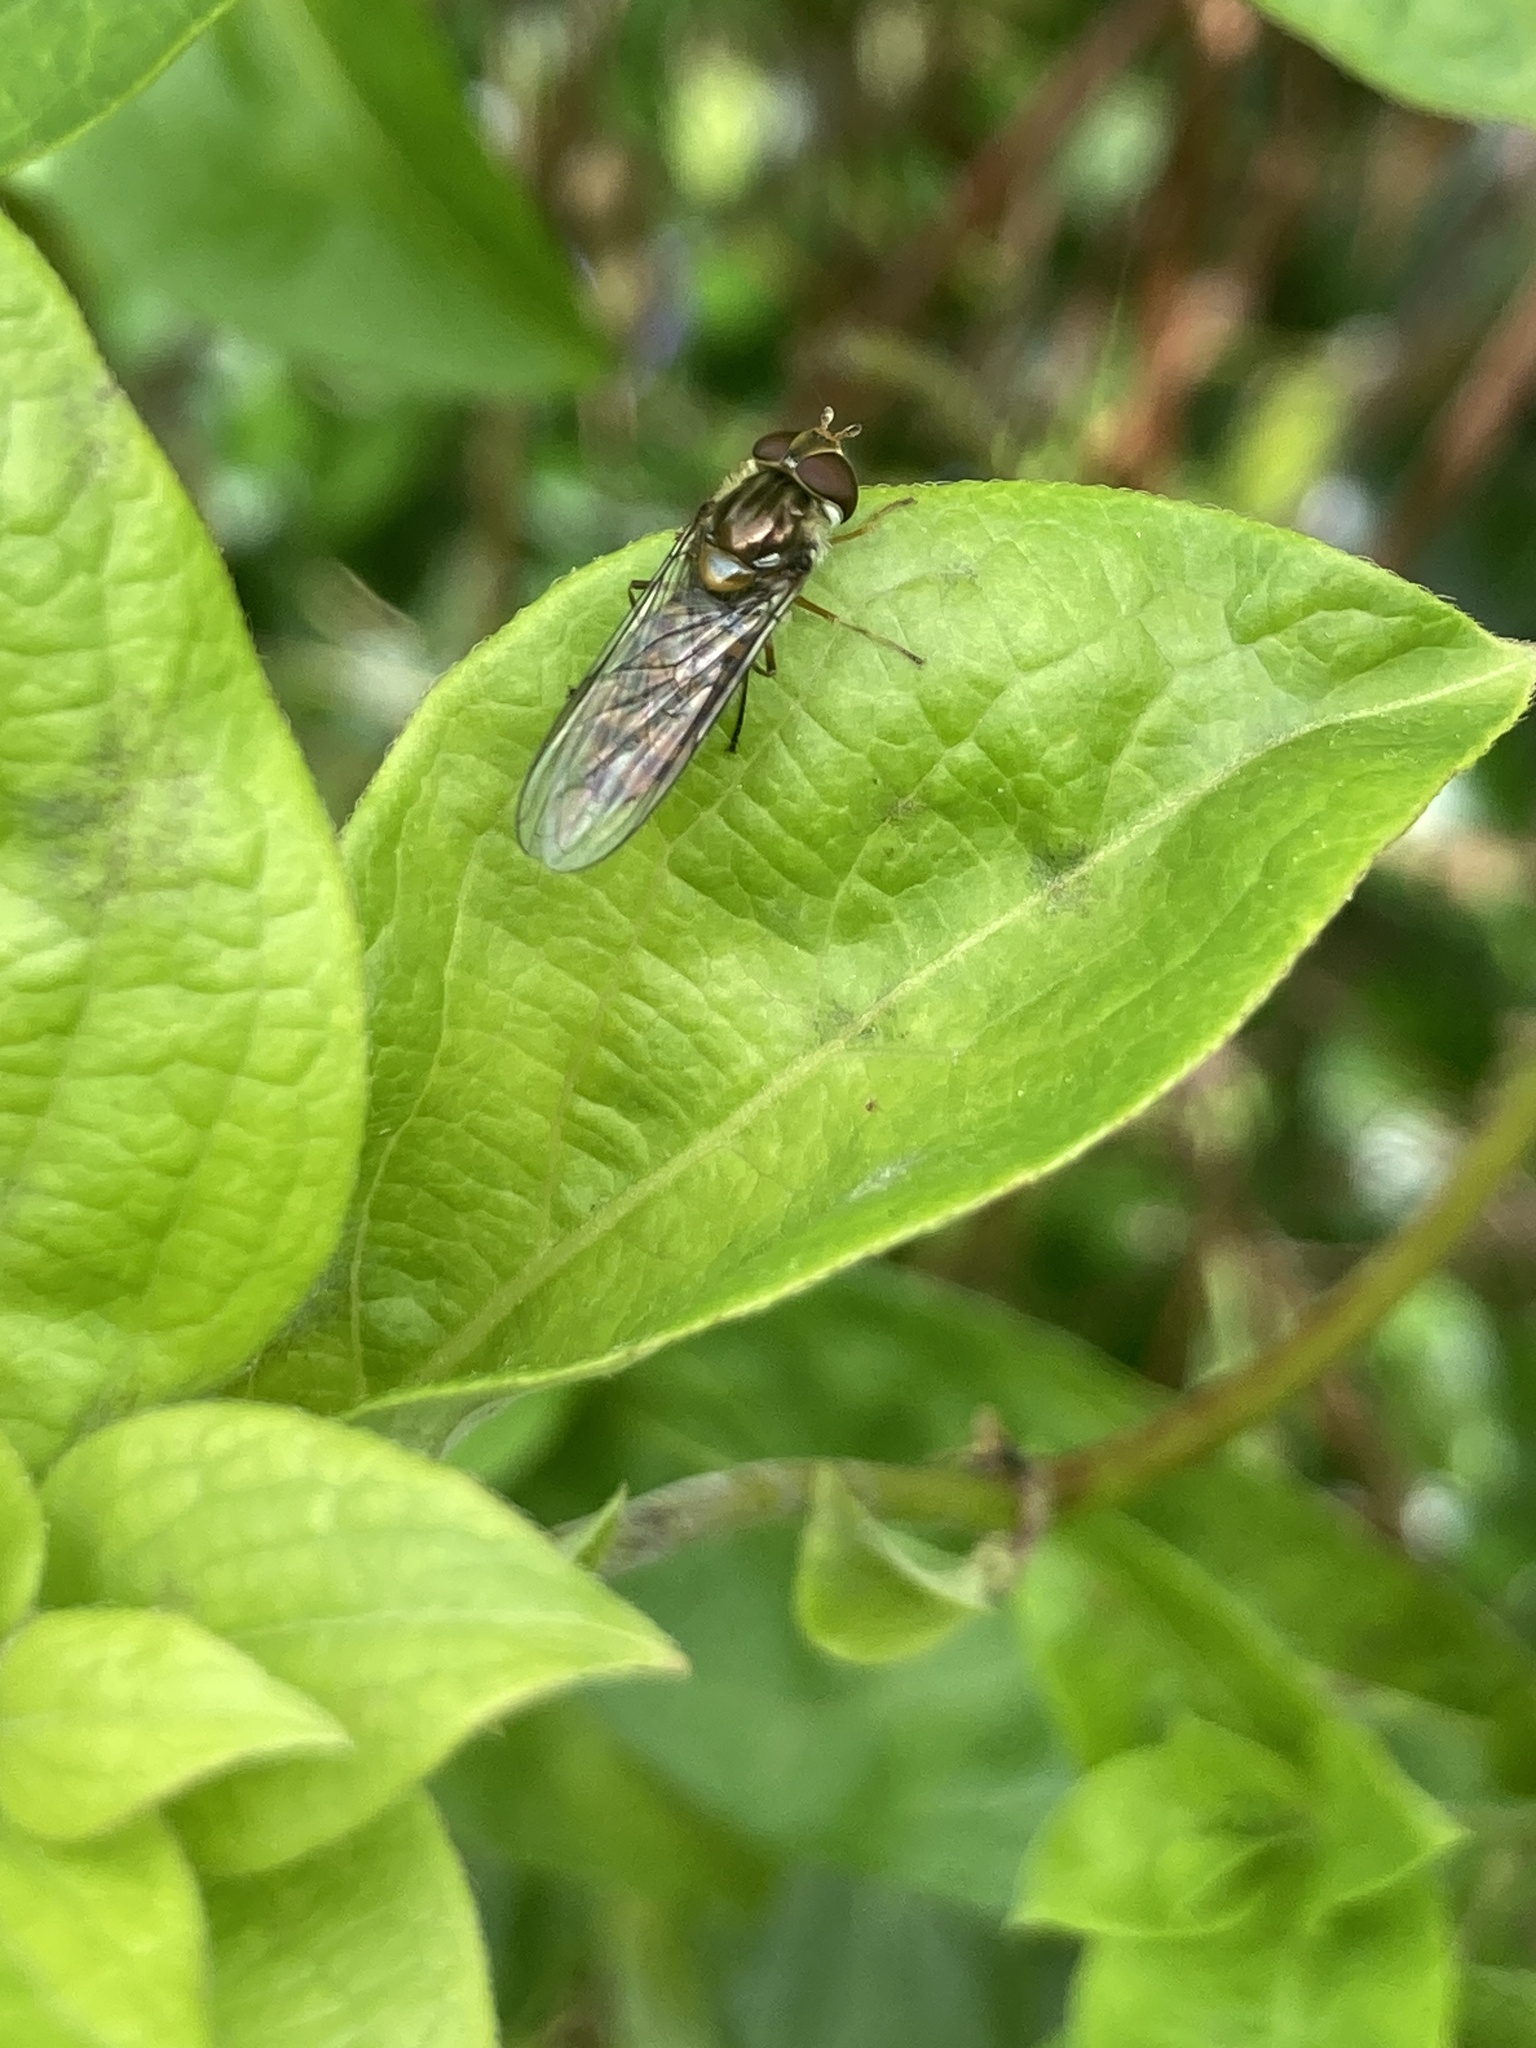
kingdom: Animalia
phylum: Arthropoda
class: Insecta
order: Diptera
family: Syrphidae
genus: Episyrphus
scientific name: Episyrphus balteatus
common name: Marmalade hoverfly
